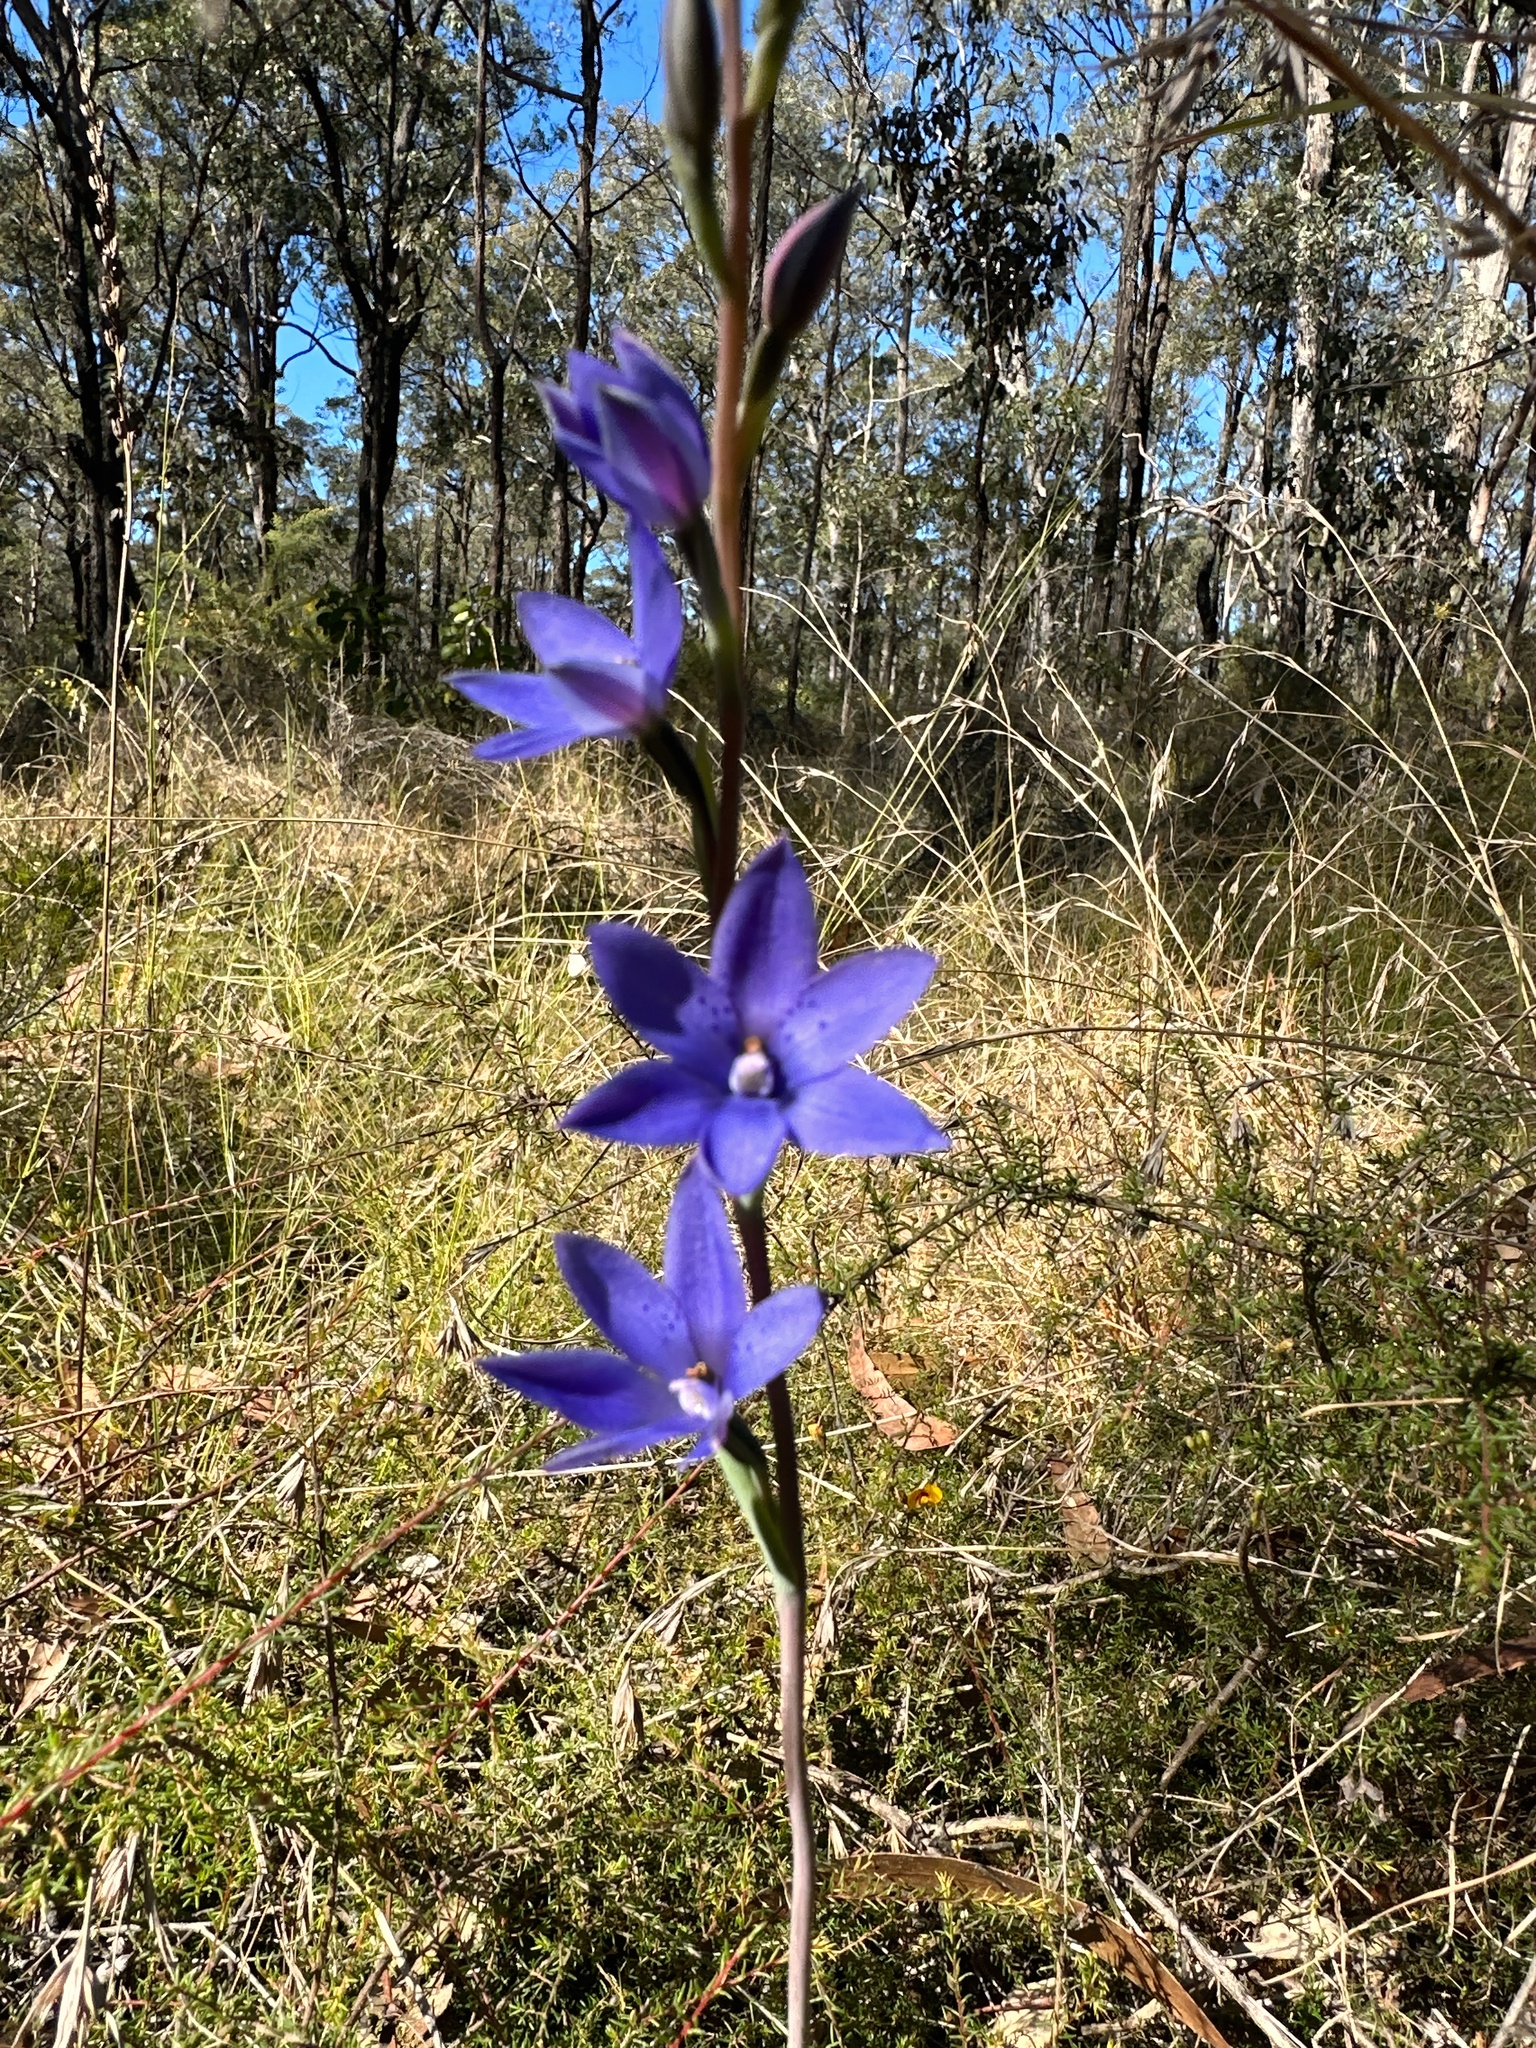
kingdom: Plantae
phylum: Tracheophyta
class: Liliopsida
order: Asparagales
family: Orchidaceae
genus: Thelymitra
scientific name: Thelymitra ixioides
